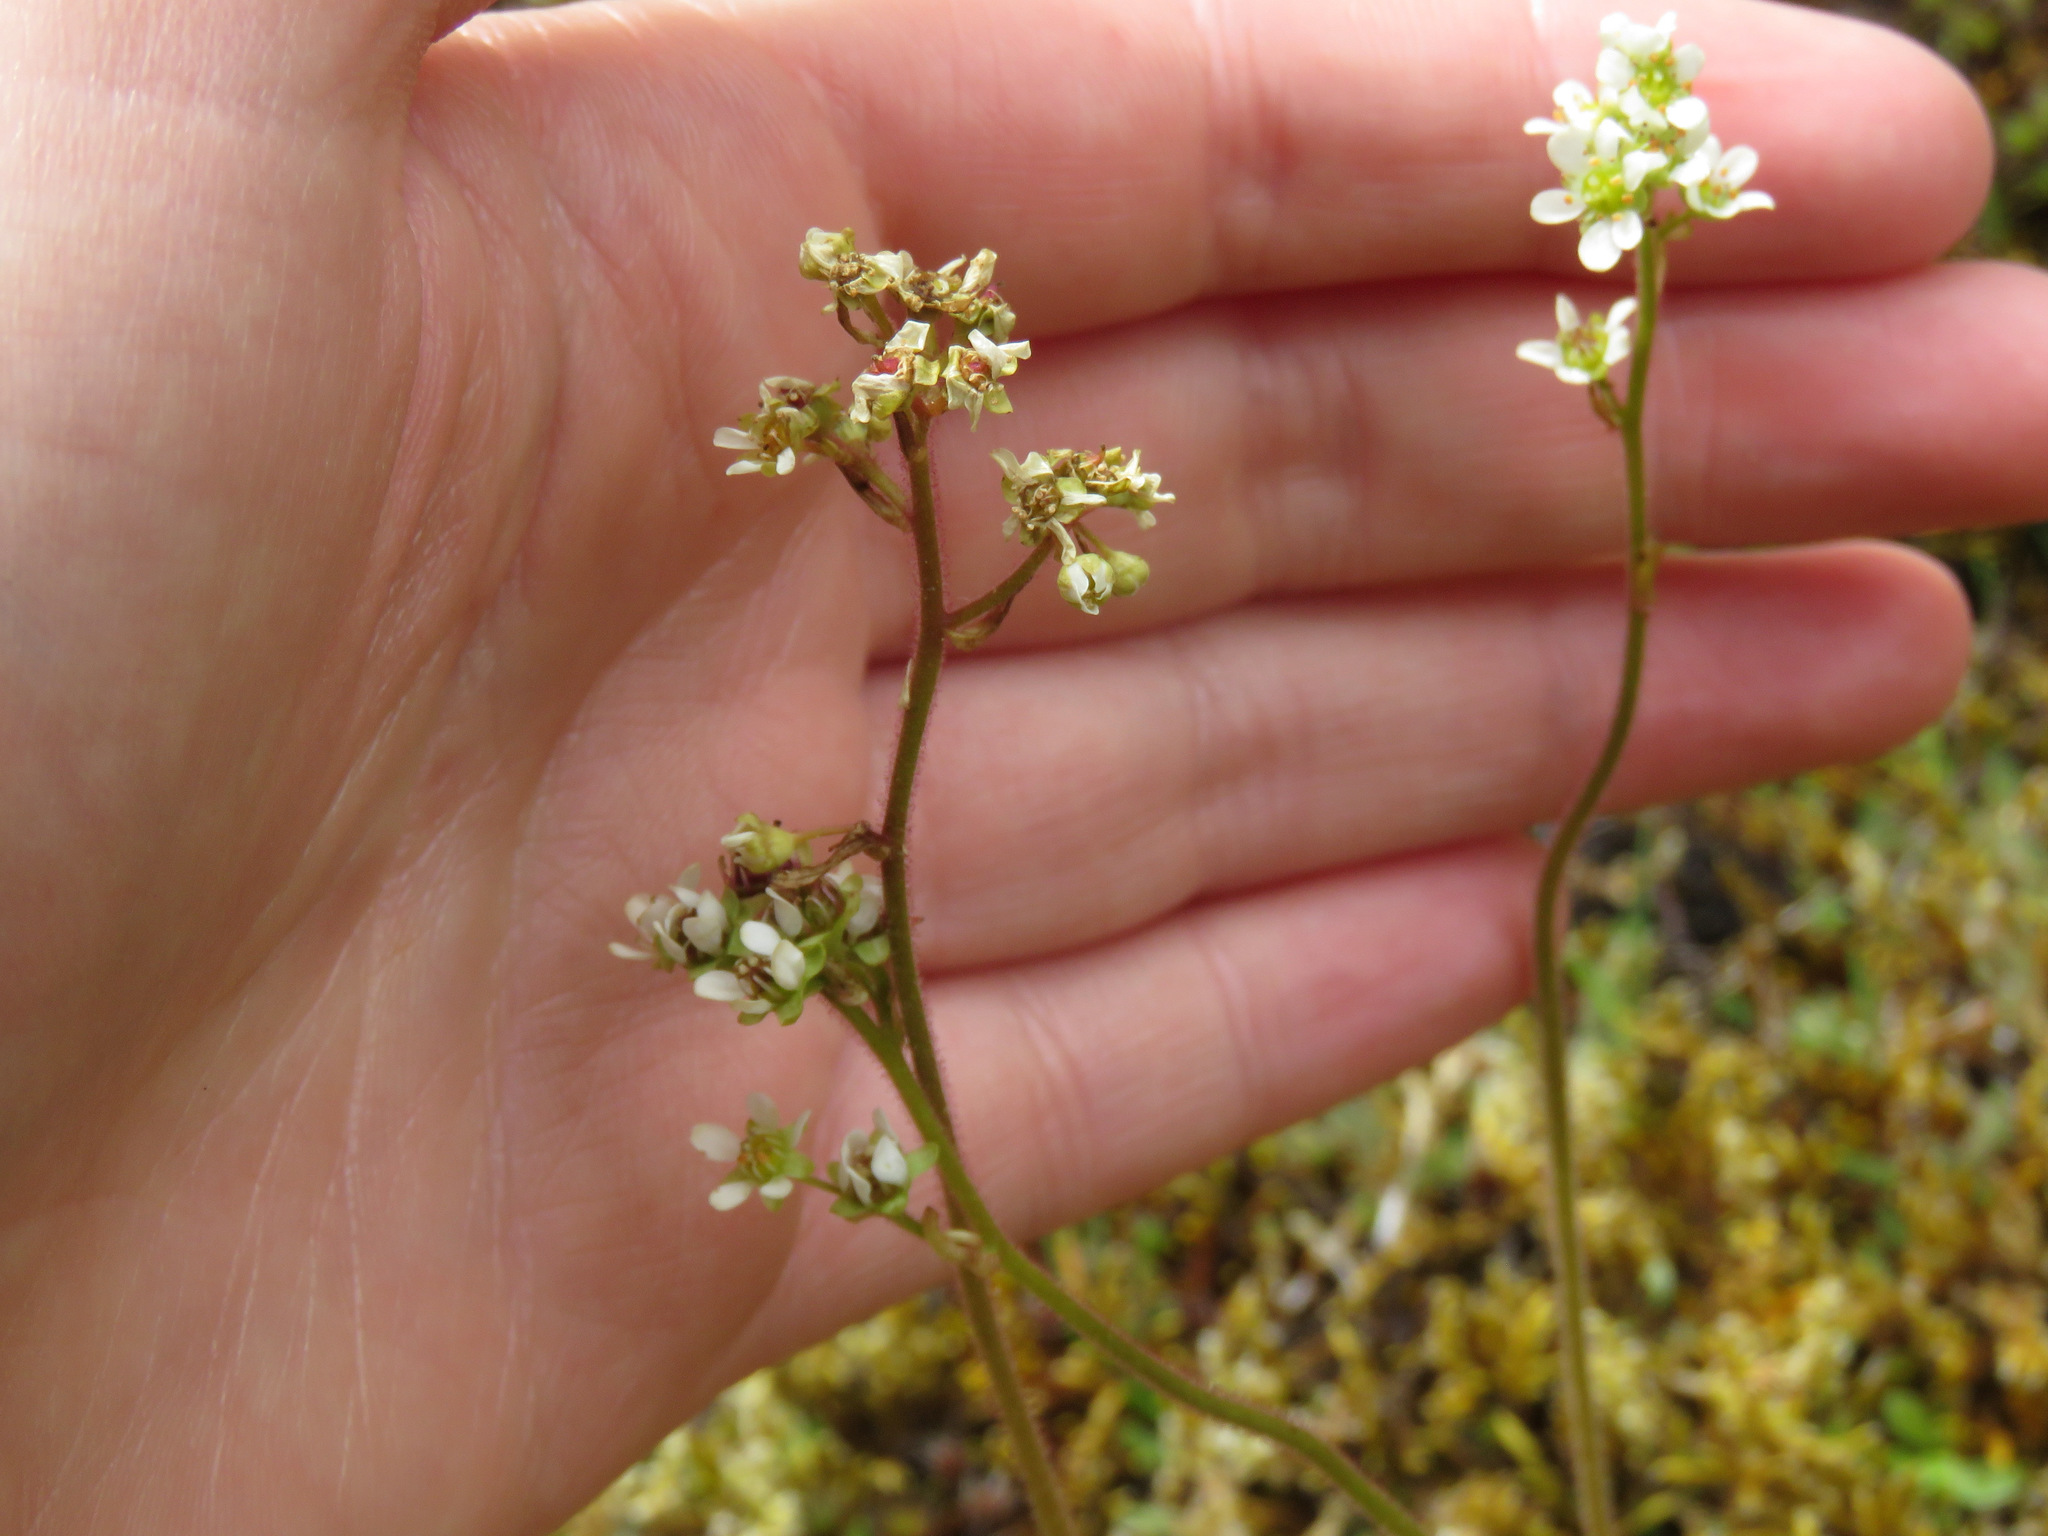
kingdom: Plantae
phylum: Tracheophyta
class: Magnoliopsida
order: Saxifragales
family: Saxifragaceae
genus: Micranthes
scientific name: Micranthes integrifolia
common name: Wholeleaf saxifrage
